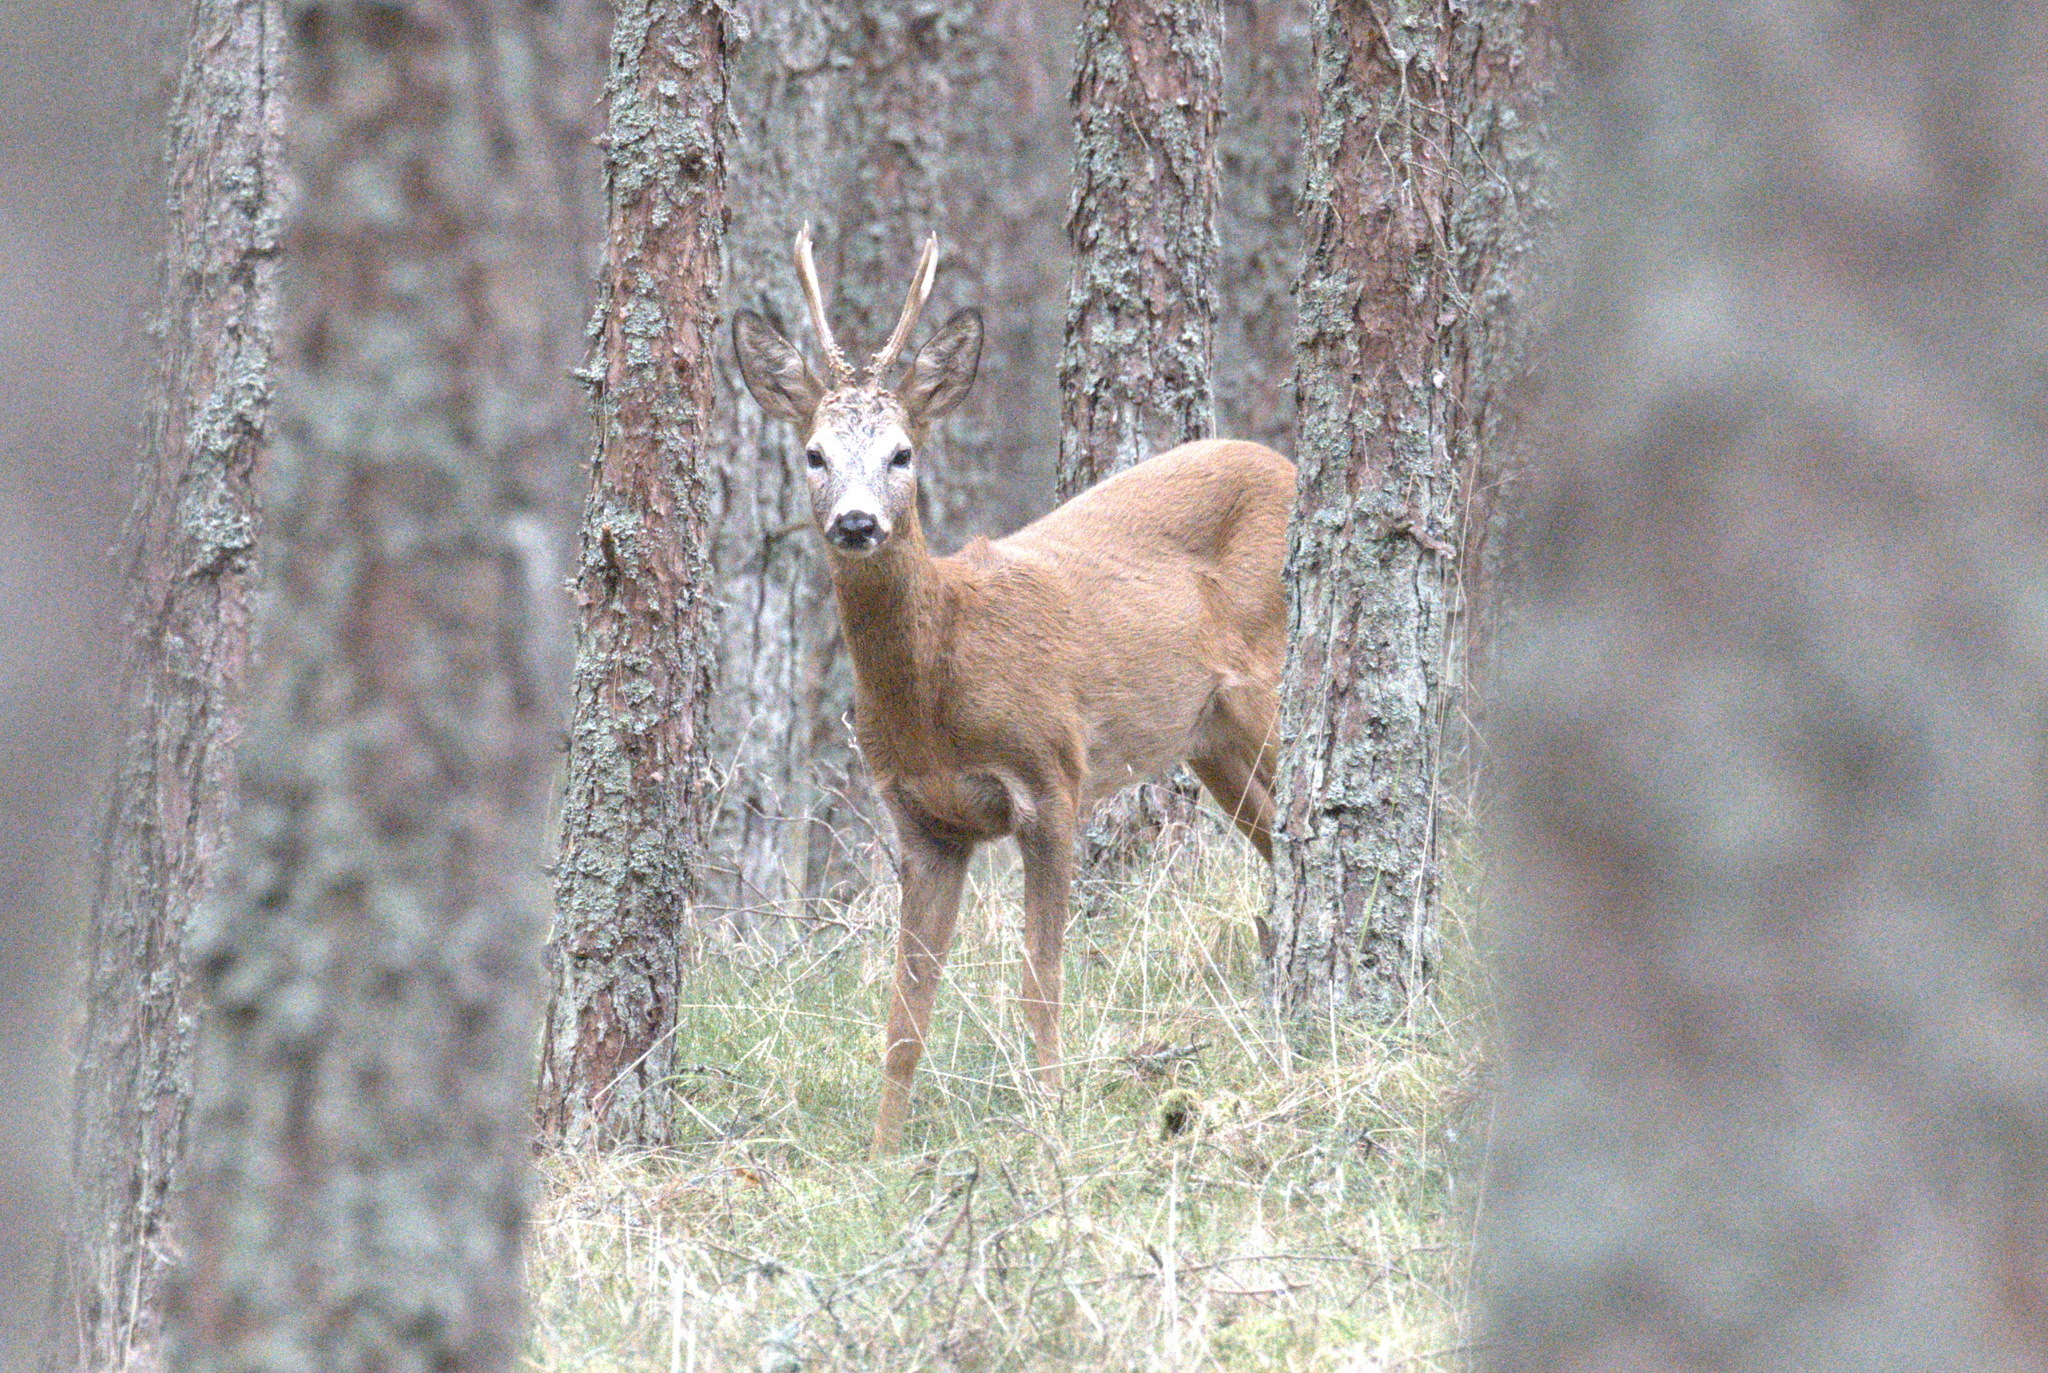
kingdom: Animalia
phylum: Chordata
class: Mammalia
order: Artiodactyla
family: Cervidae
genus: Capreolus
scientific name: Capreolus capreolus
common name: Western roe deer
